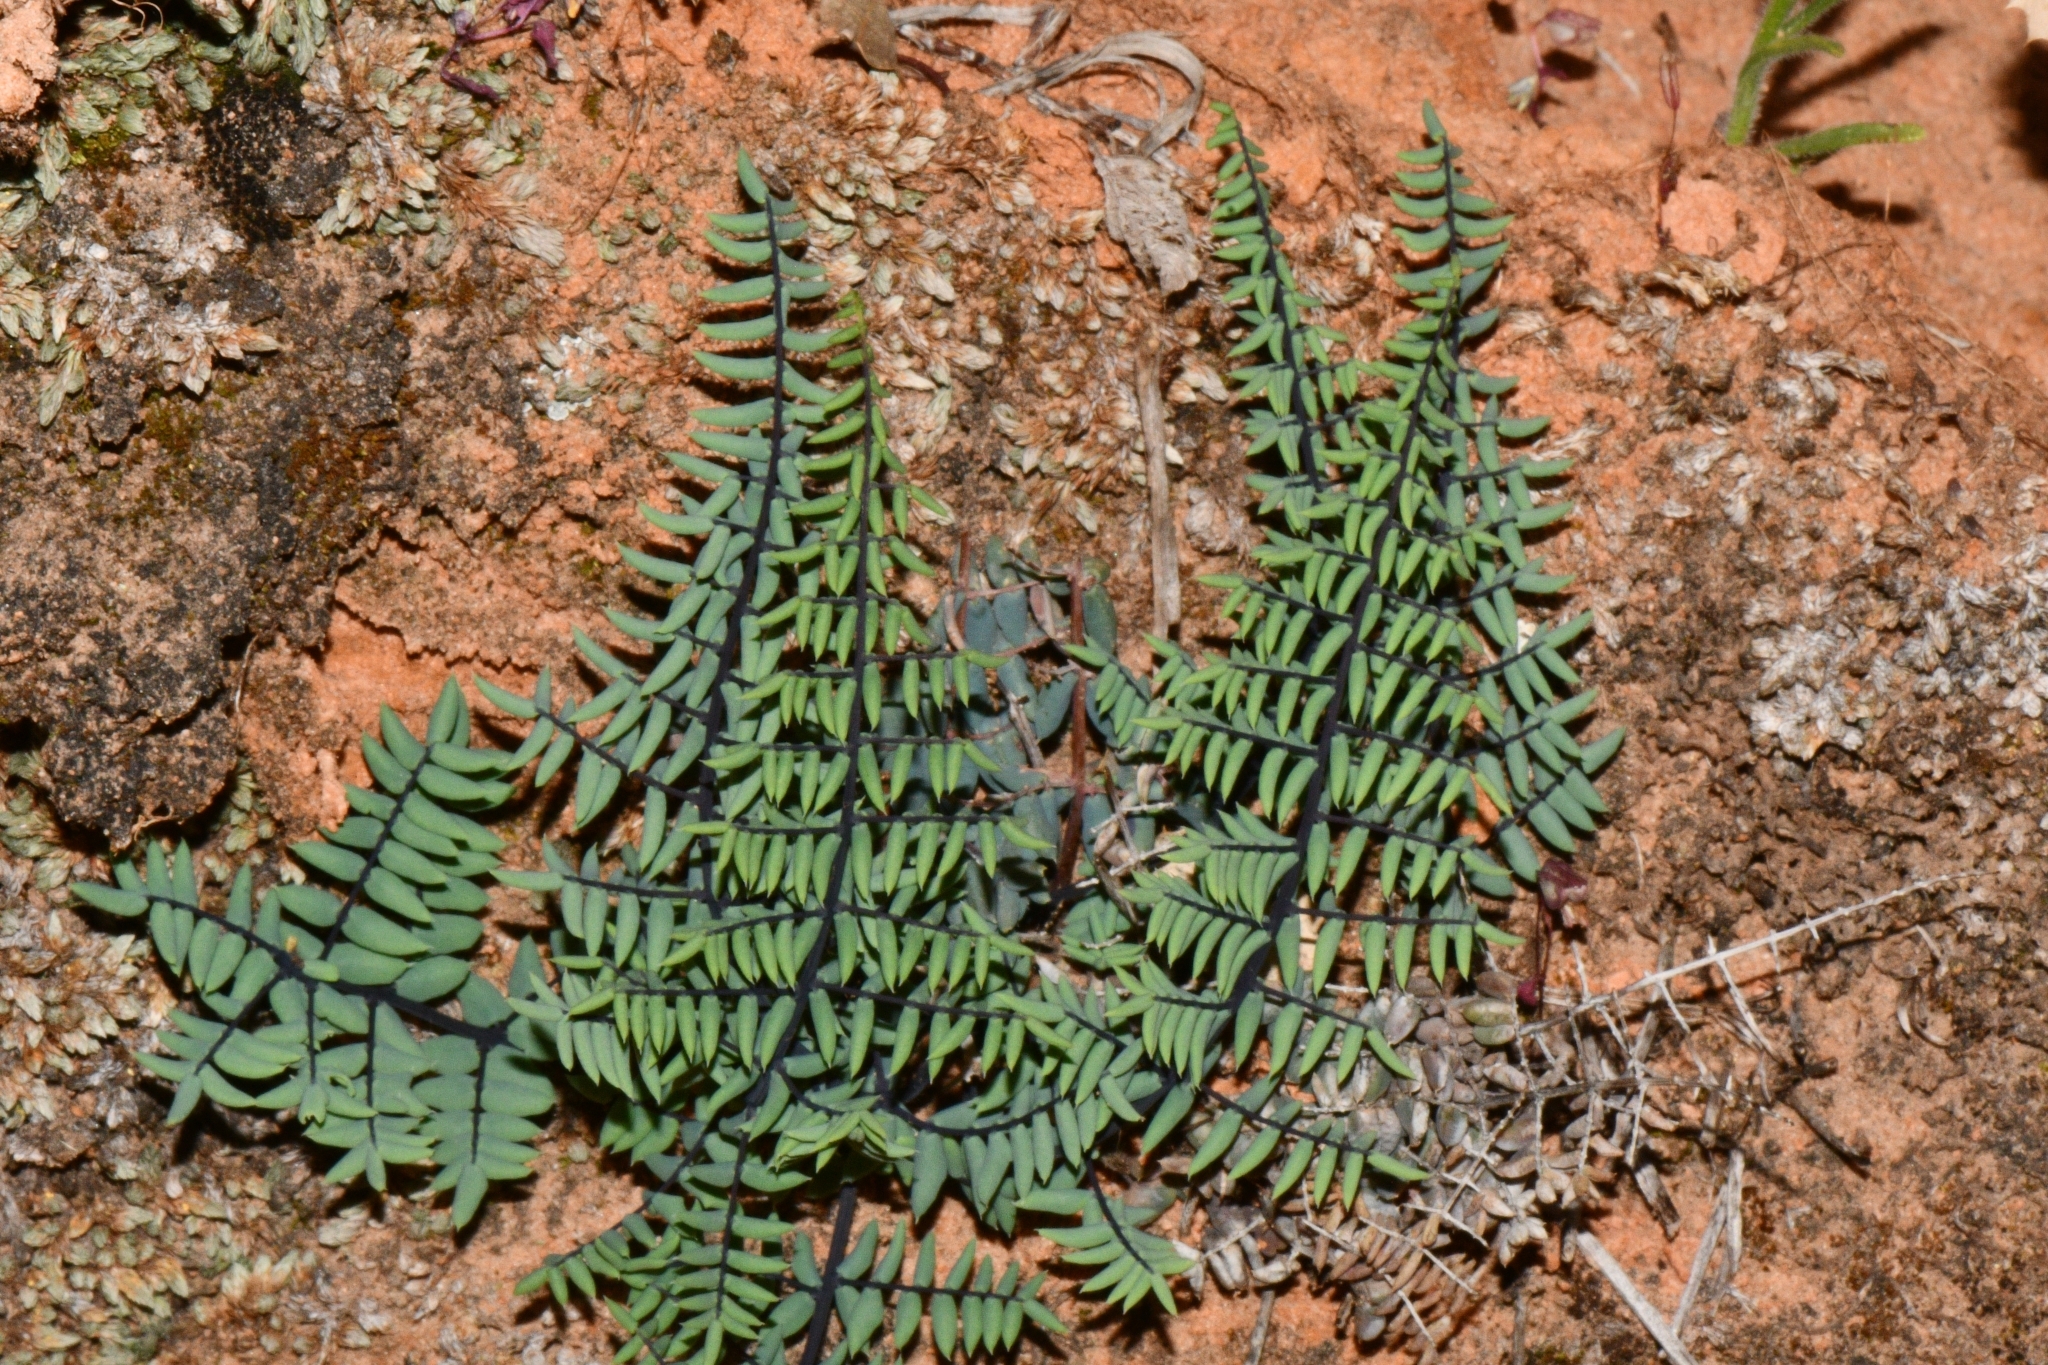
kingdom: Plantae
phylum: Tracheophyta
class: Polypodiopsida
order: Polypodiales
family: Pteridaceae
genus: Pellaea
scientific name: Pellaea truncata
